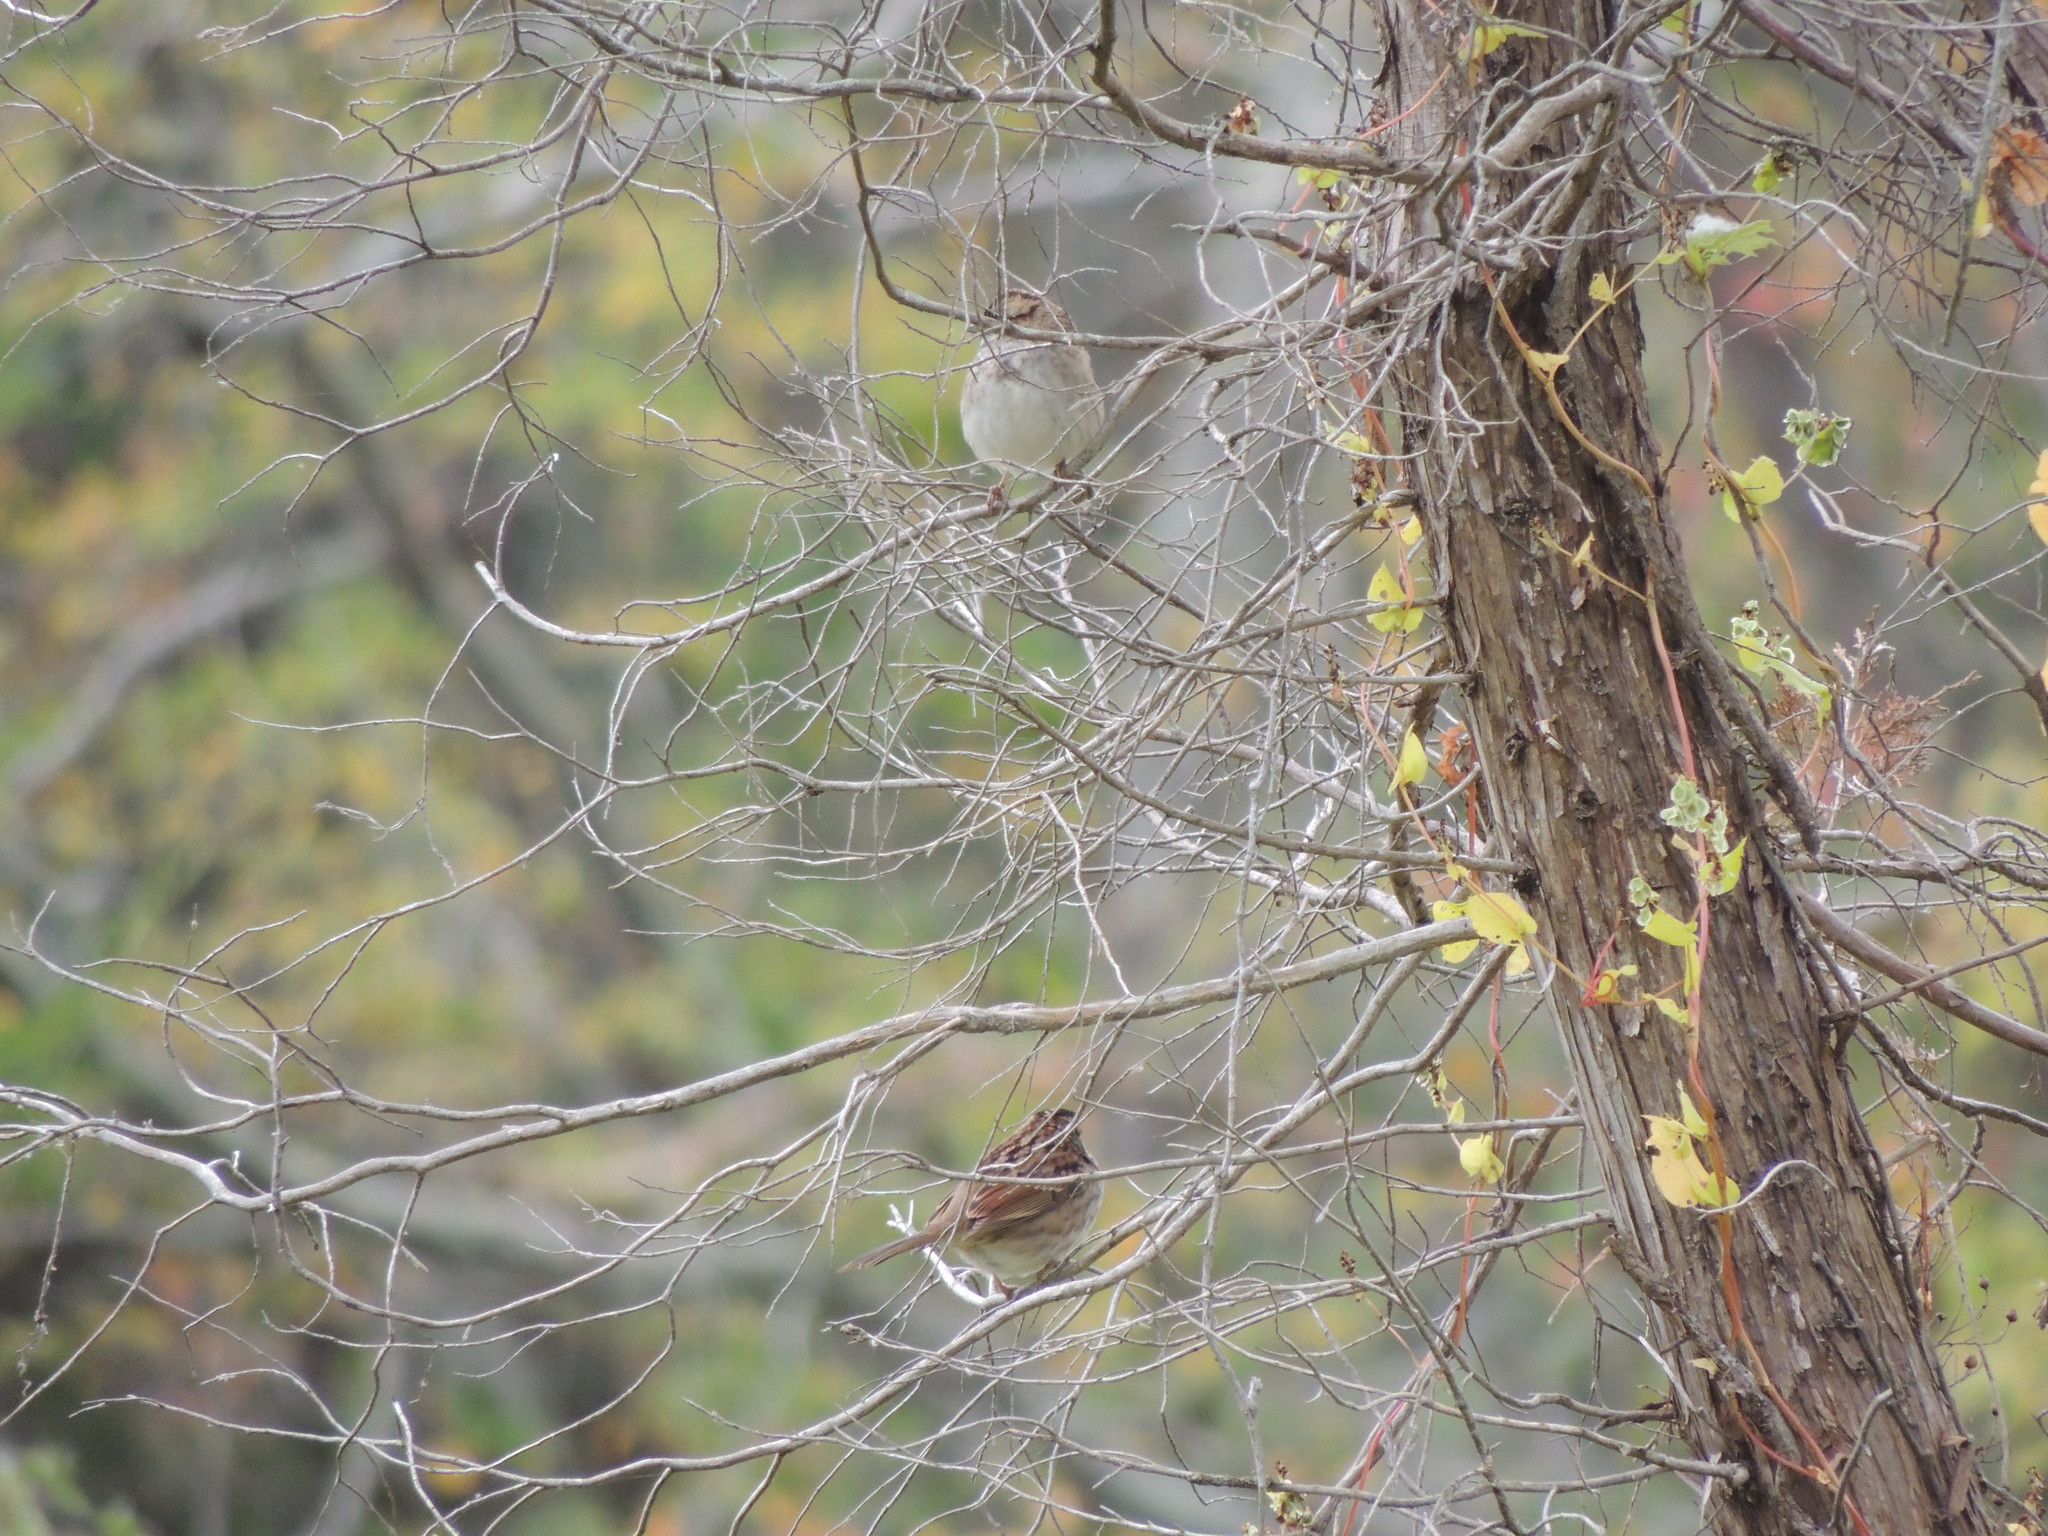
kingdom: Animalia
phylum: Chordata
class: Aves
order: Passeriformes
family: Passerellidae
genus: Zonotrichia
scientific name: Zonotrichia albicollis
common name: White-throated sparrow
